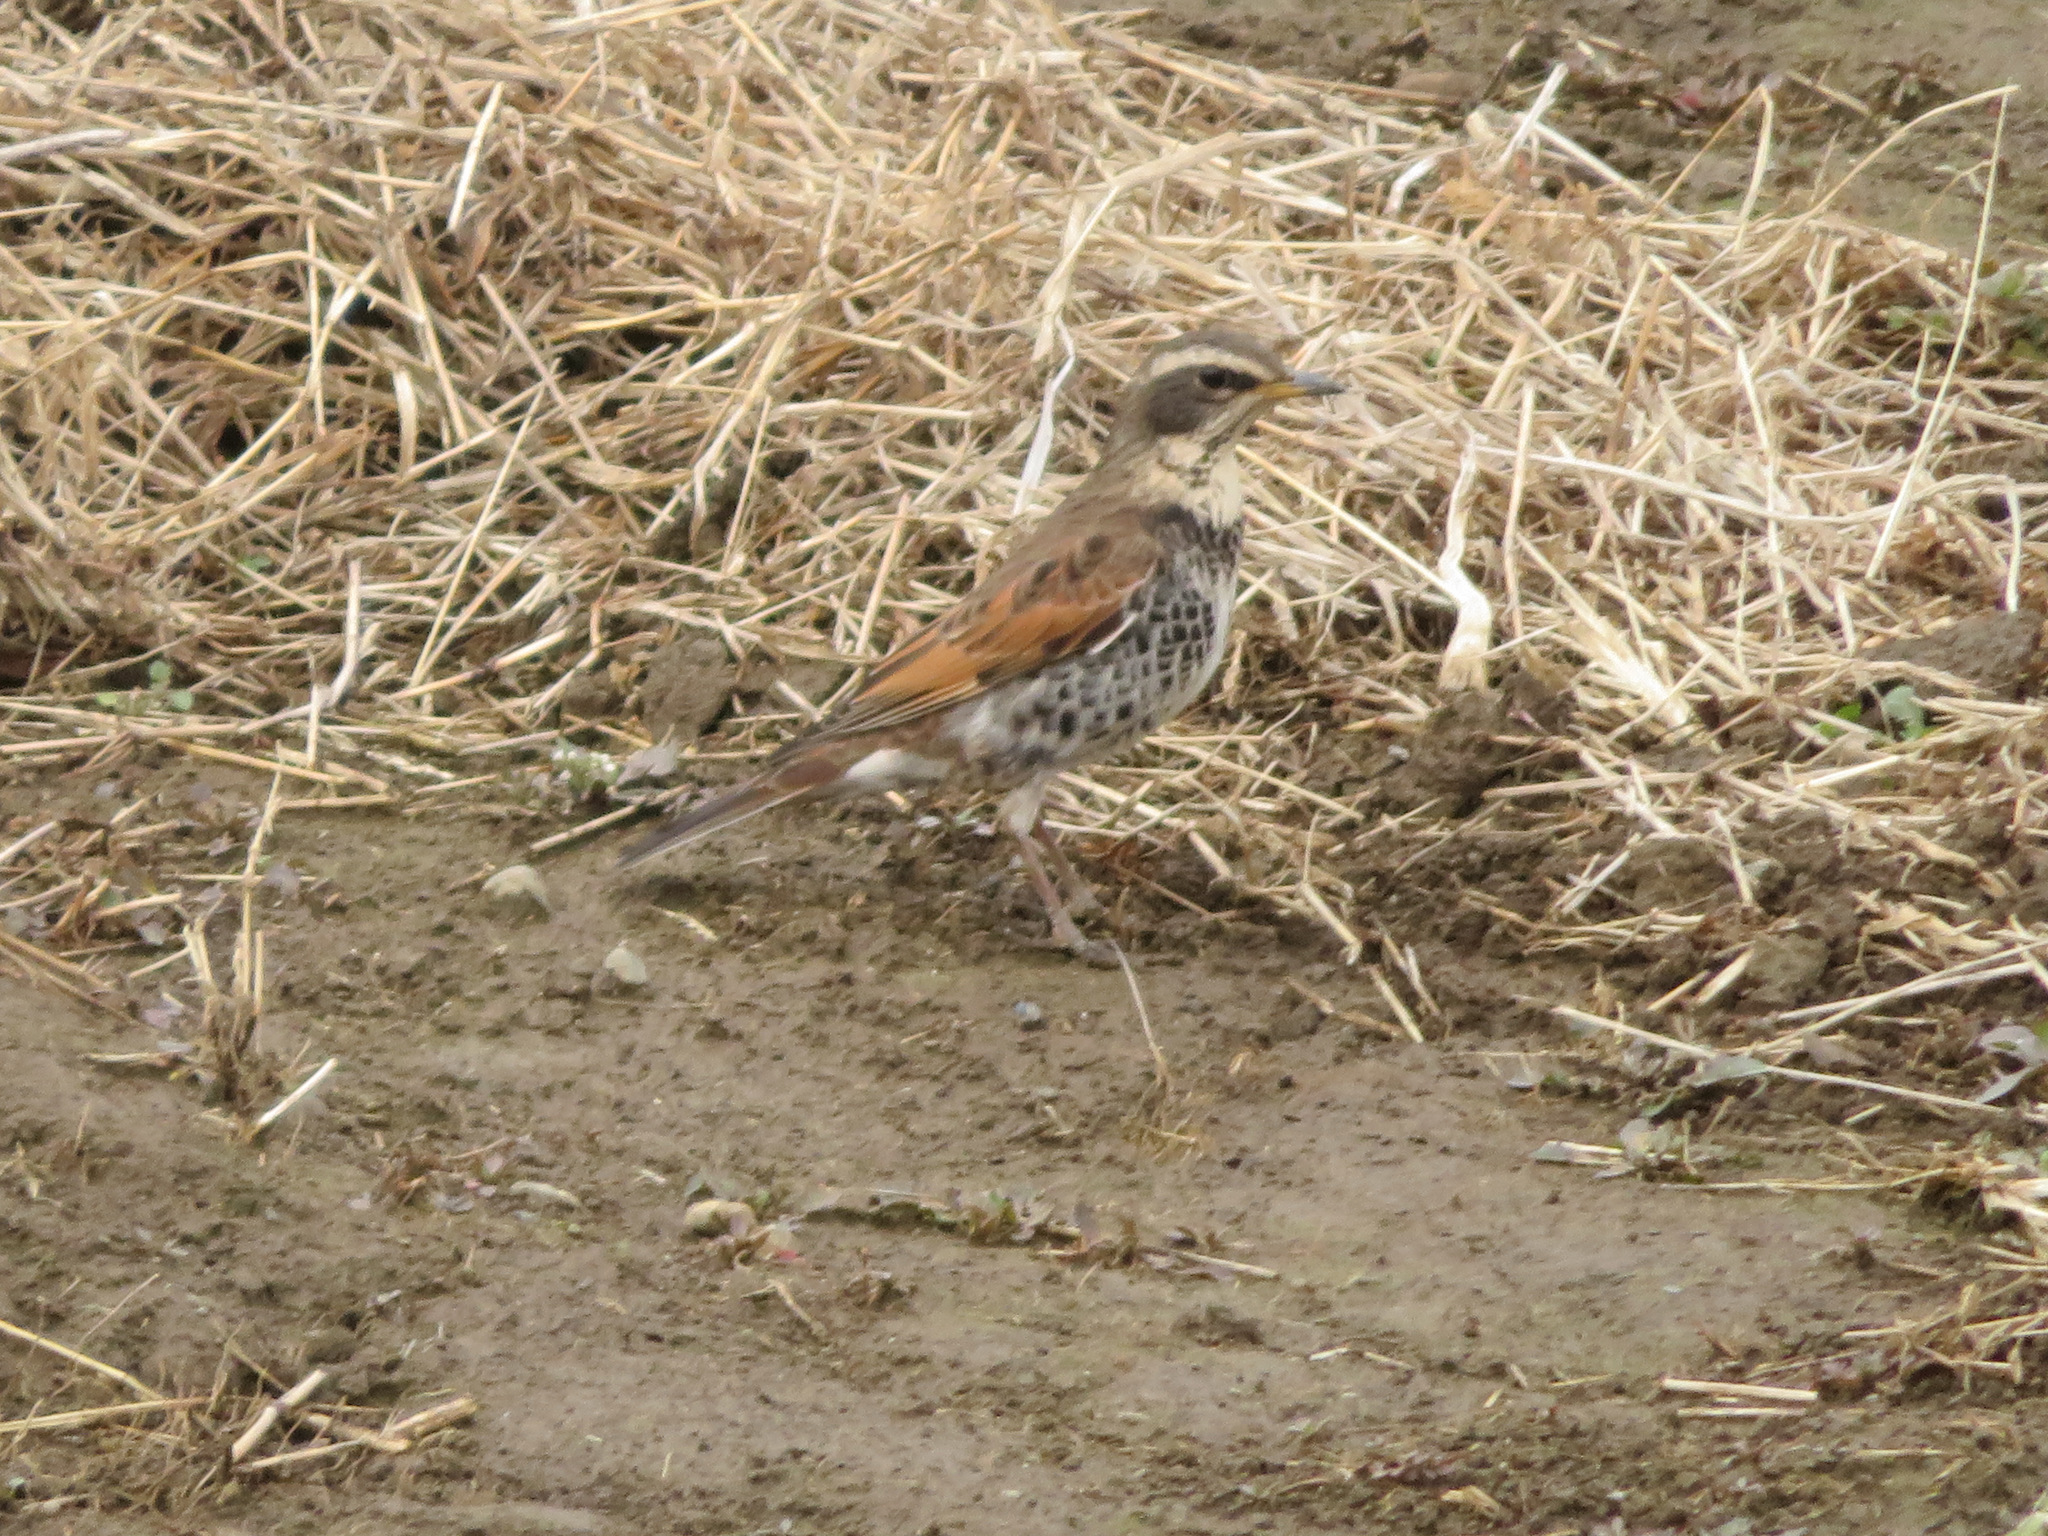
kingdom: Animalia
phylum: Chordata
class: Aves
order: Passeriformes
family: Turdidae
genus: Turdus
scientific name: Turdus eunomus
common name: Dusky thrush
